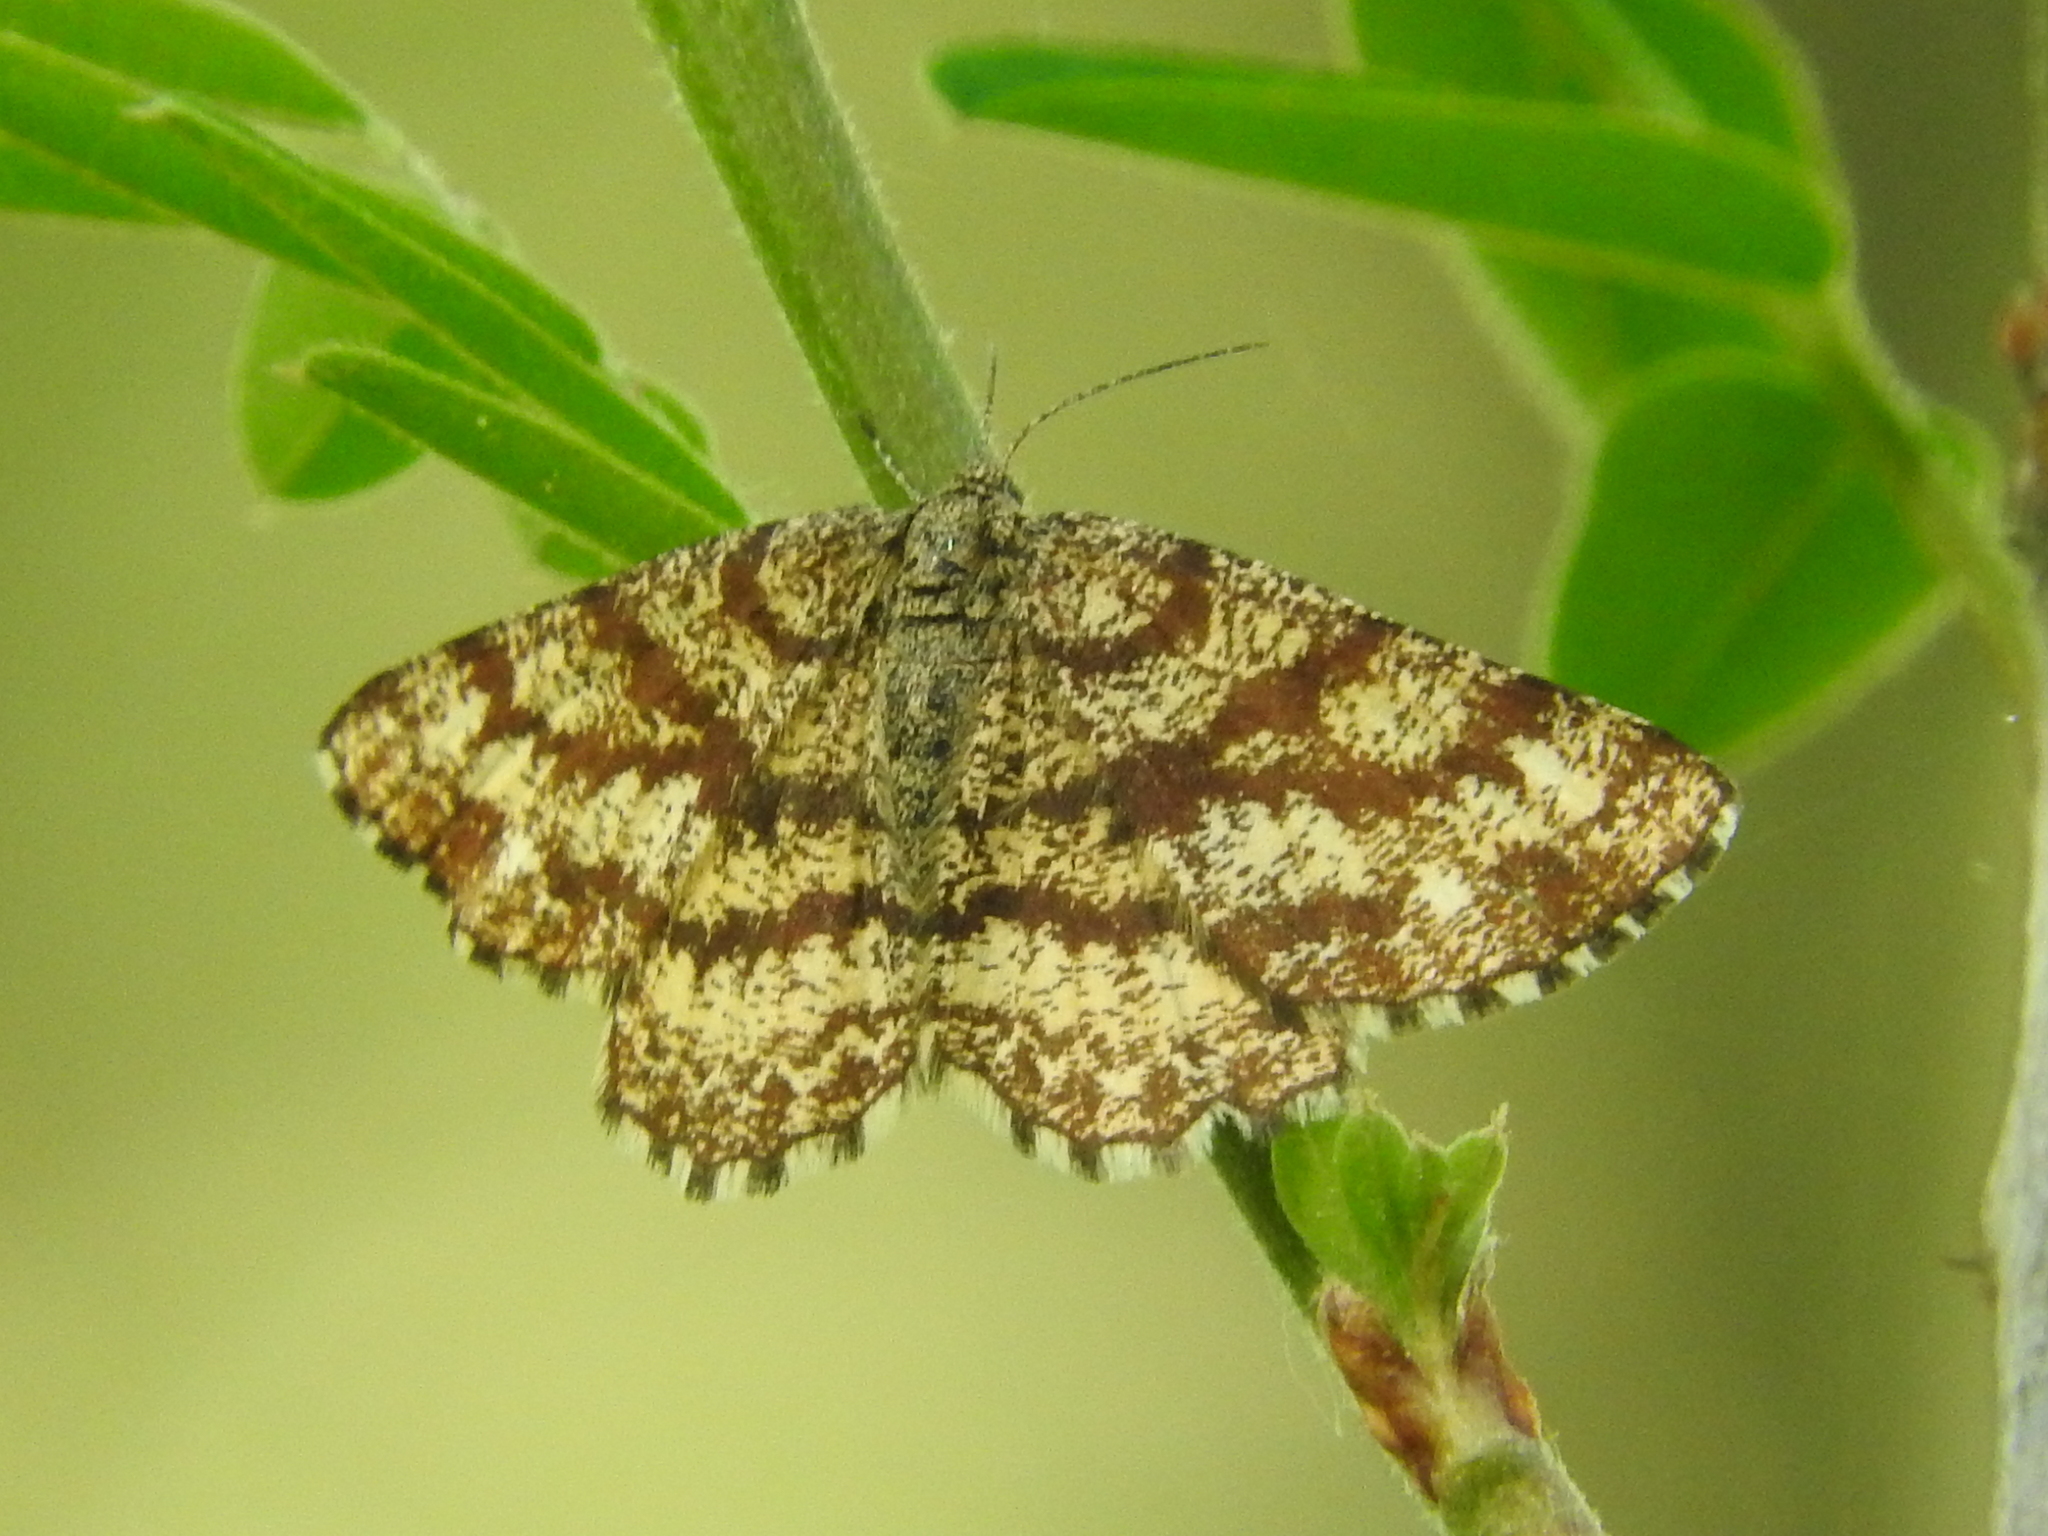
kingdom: Animalia
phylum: Arthropoda
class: Insecta
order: Lepidoptera
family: Geometridae
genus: Ematurga
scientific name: Ematurga atomaria
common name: Common heath
